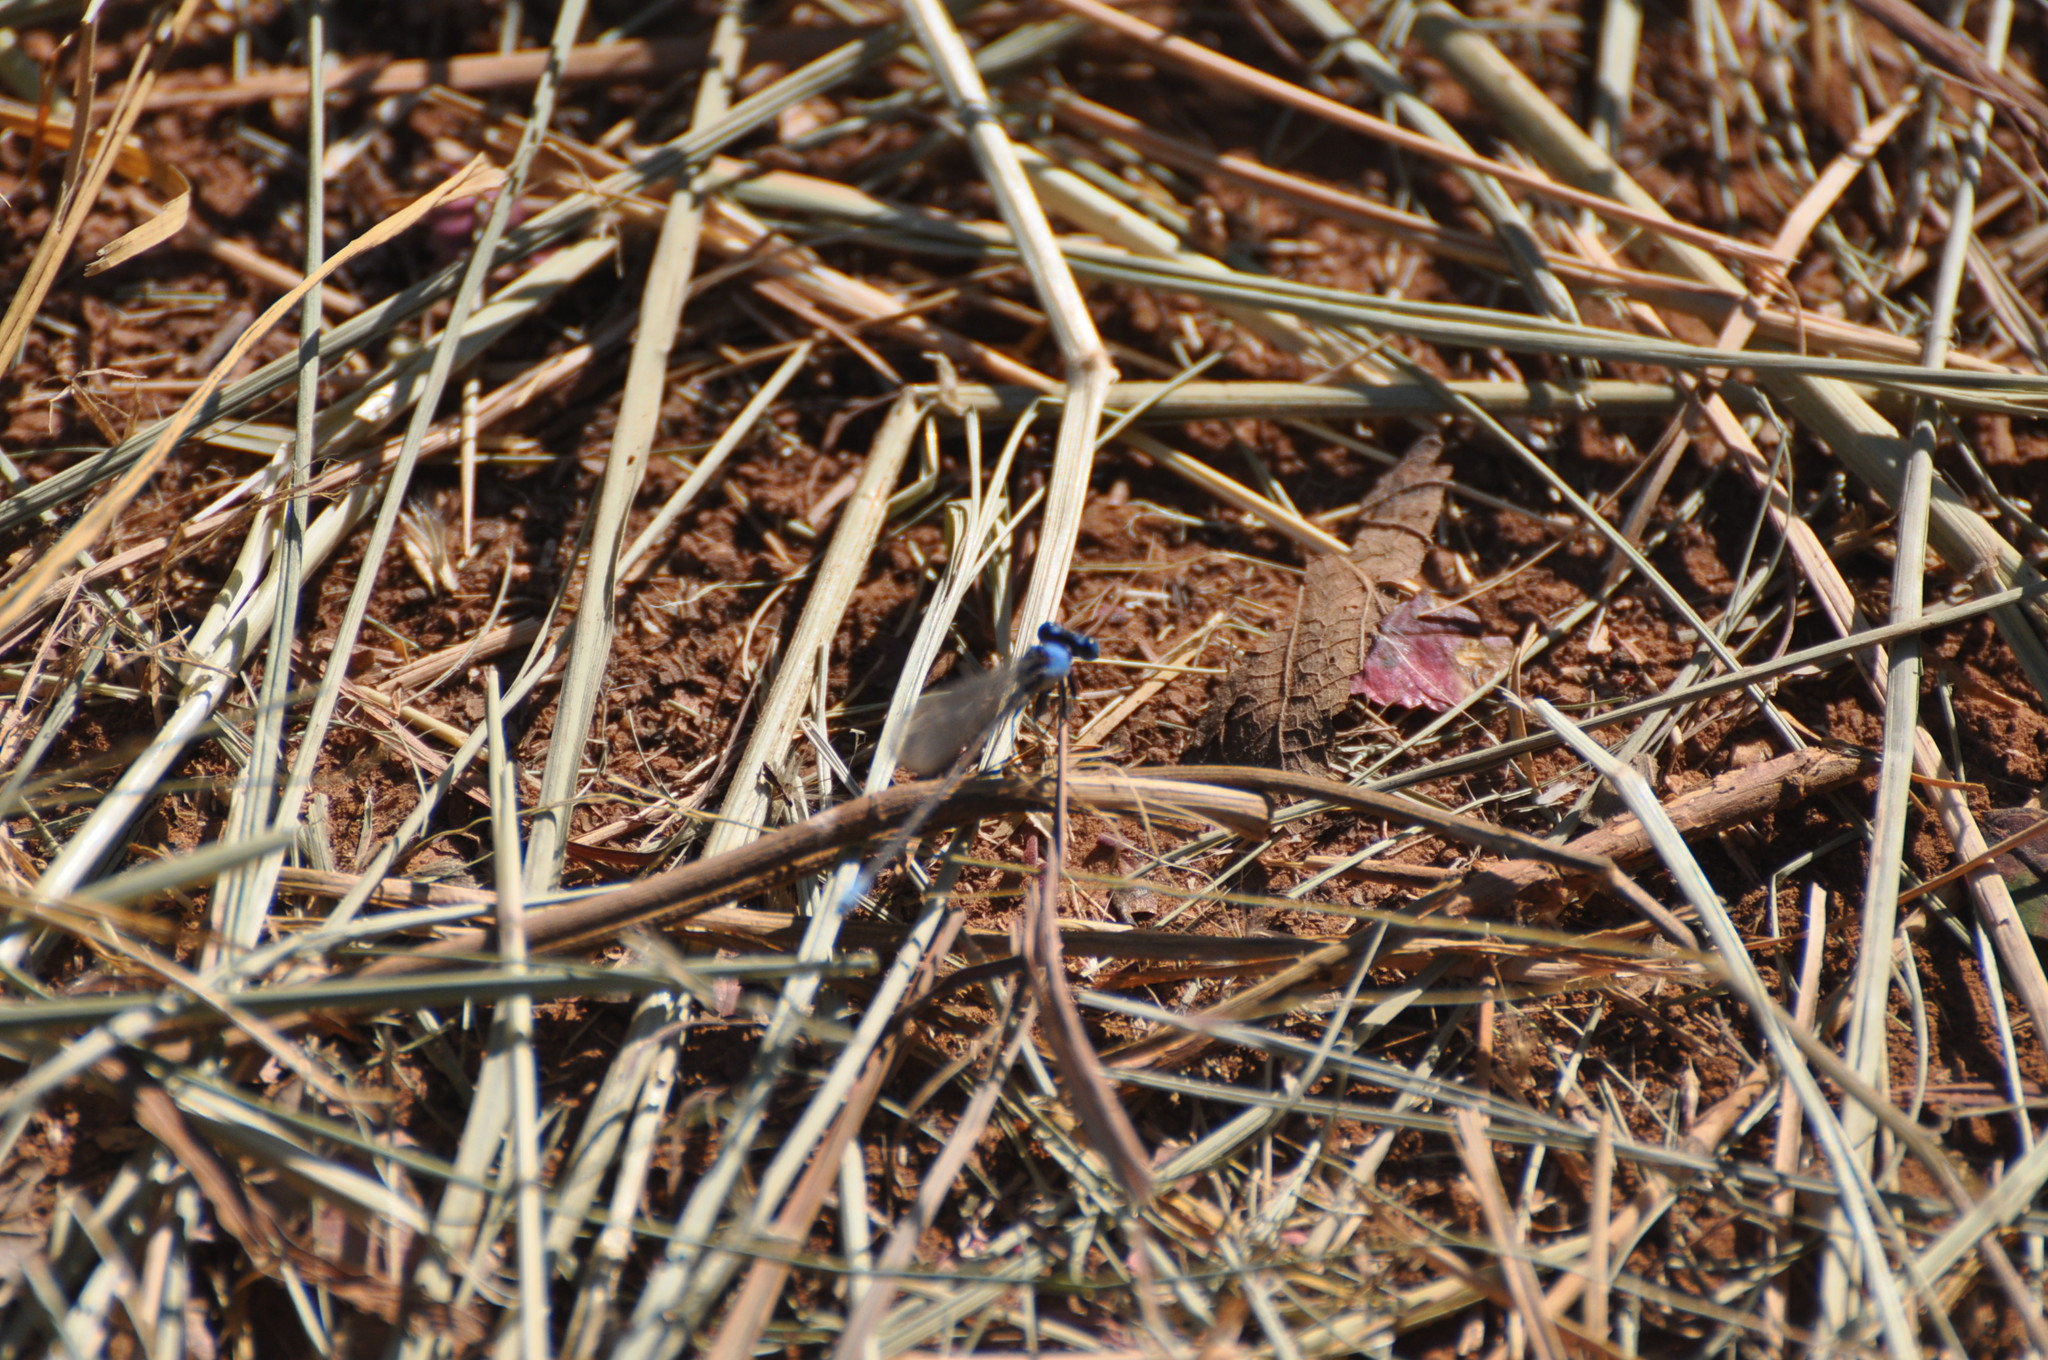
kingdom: Animalia
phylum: Arthropoda
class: Insecta
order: Odonata
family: Coenagrionidae
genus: Argia
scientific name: Argia apicalis
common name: Blue-fronted dancer
